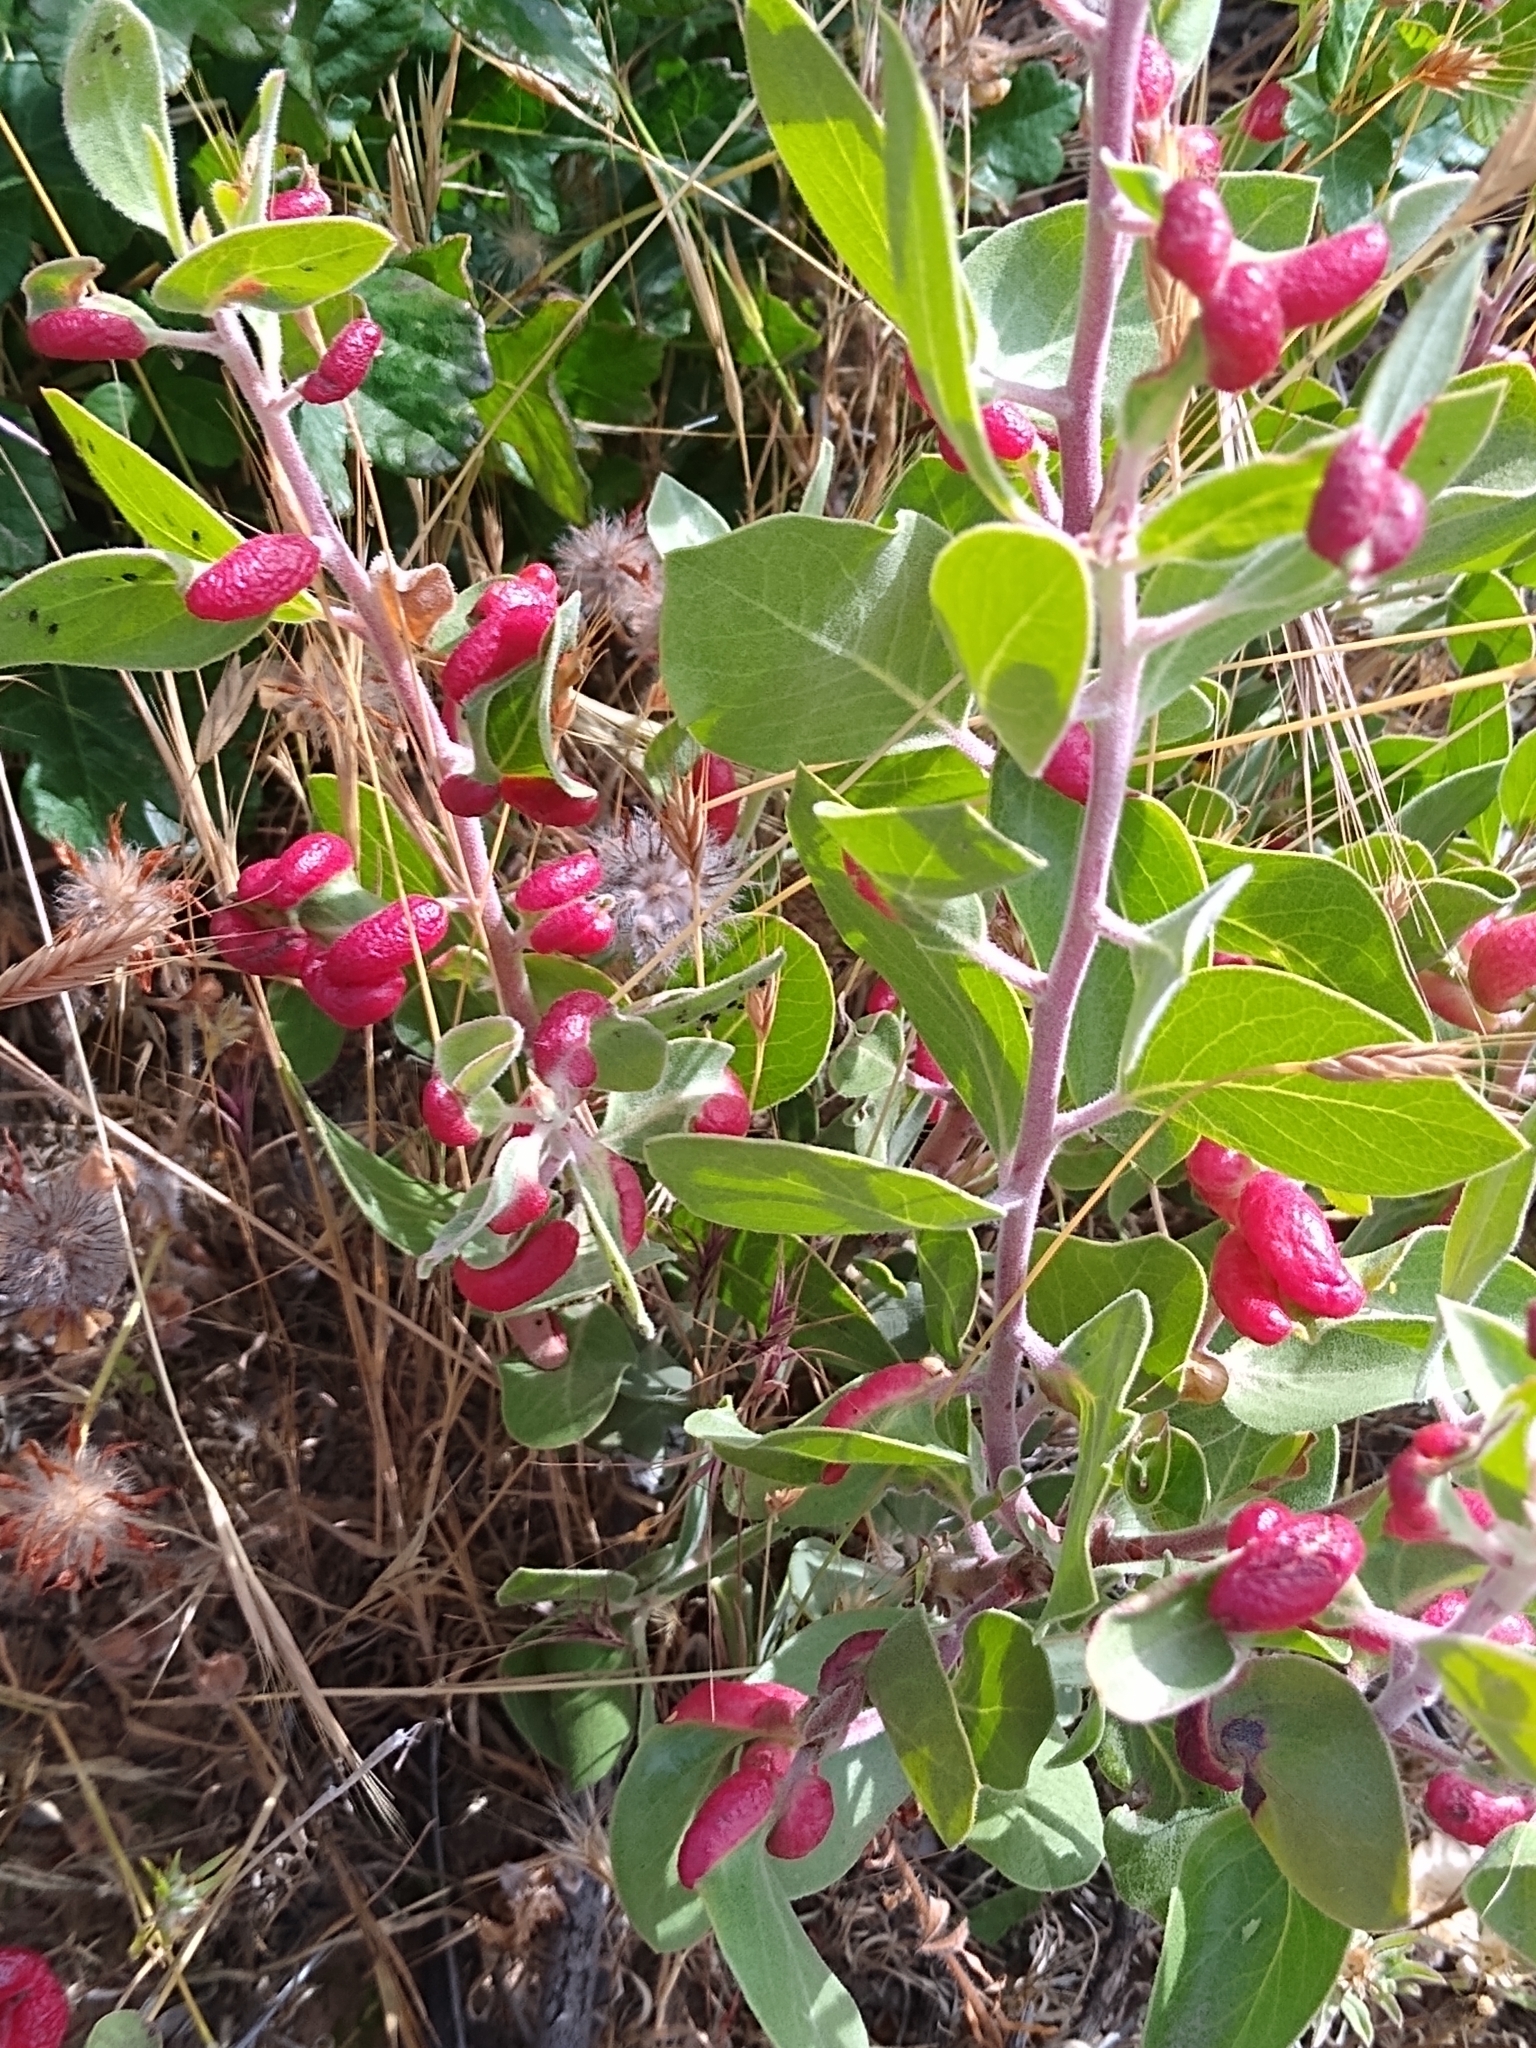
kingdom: Animalia
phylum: Arthropoda
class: Insecta
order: Hemiptera
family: Aphididae
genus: Tamalia
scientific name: Tamalia coweni
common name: Manzanita leafgall aphid
